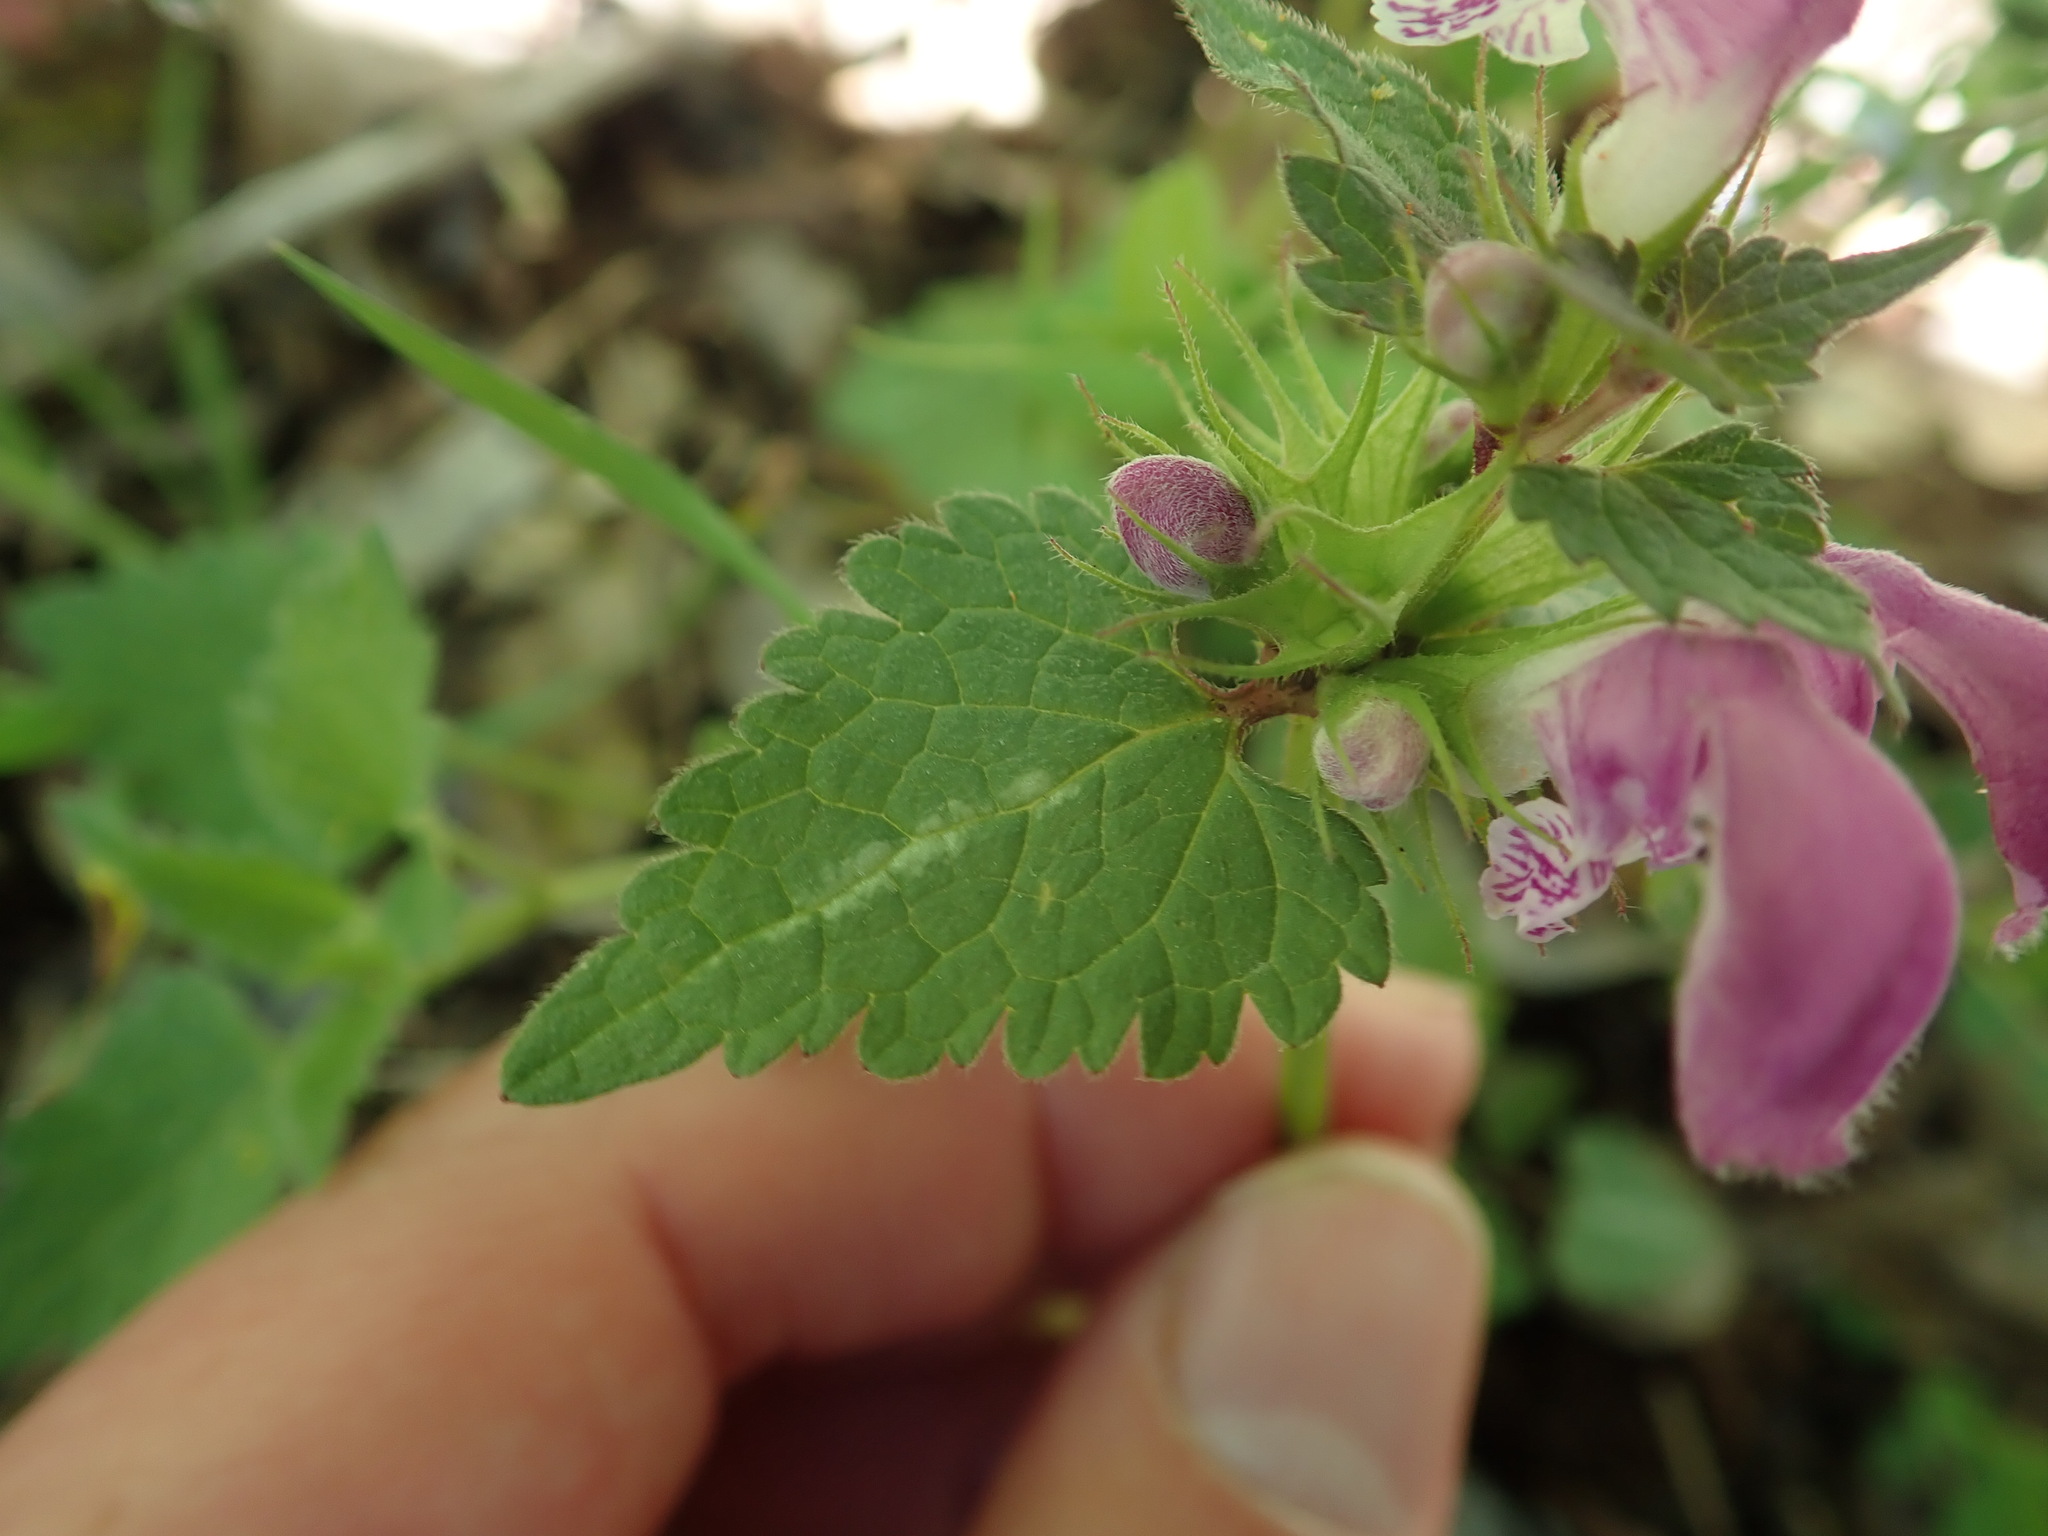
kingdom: Plantae
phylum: Tracheophyta
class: Magnoliopsida
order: Lamiales
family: Lamiaceae
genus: Lamium
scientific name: Lamium maculatum
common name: Spotted dead-nettle
